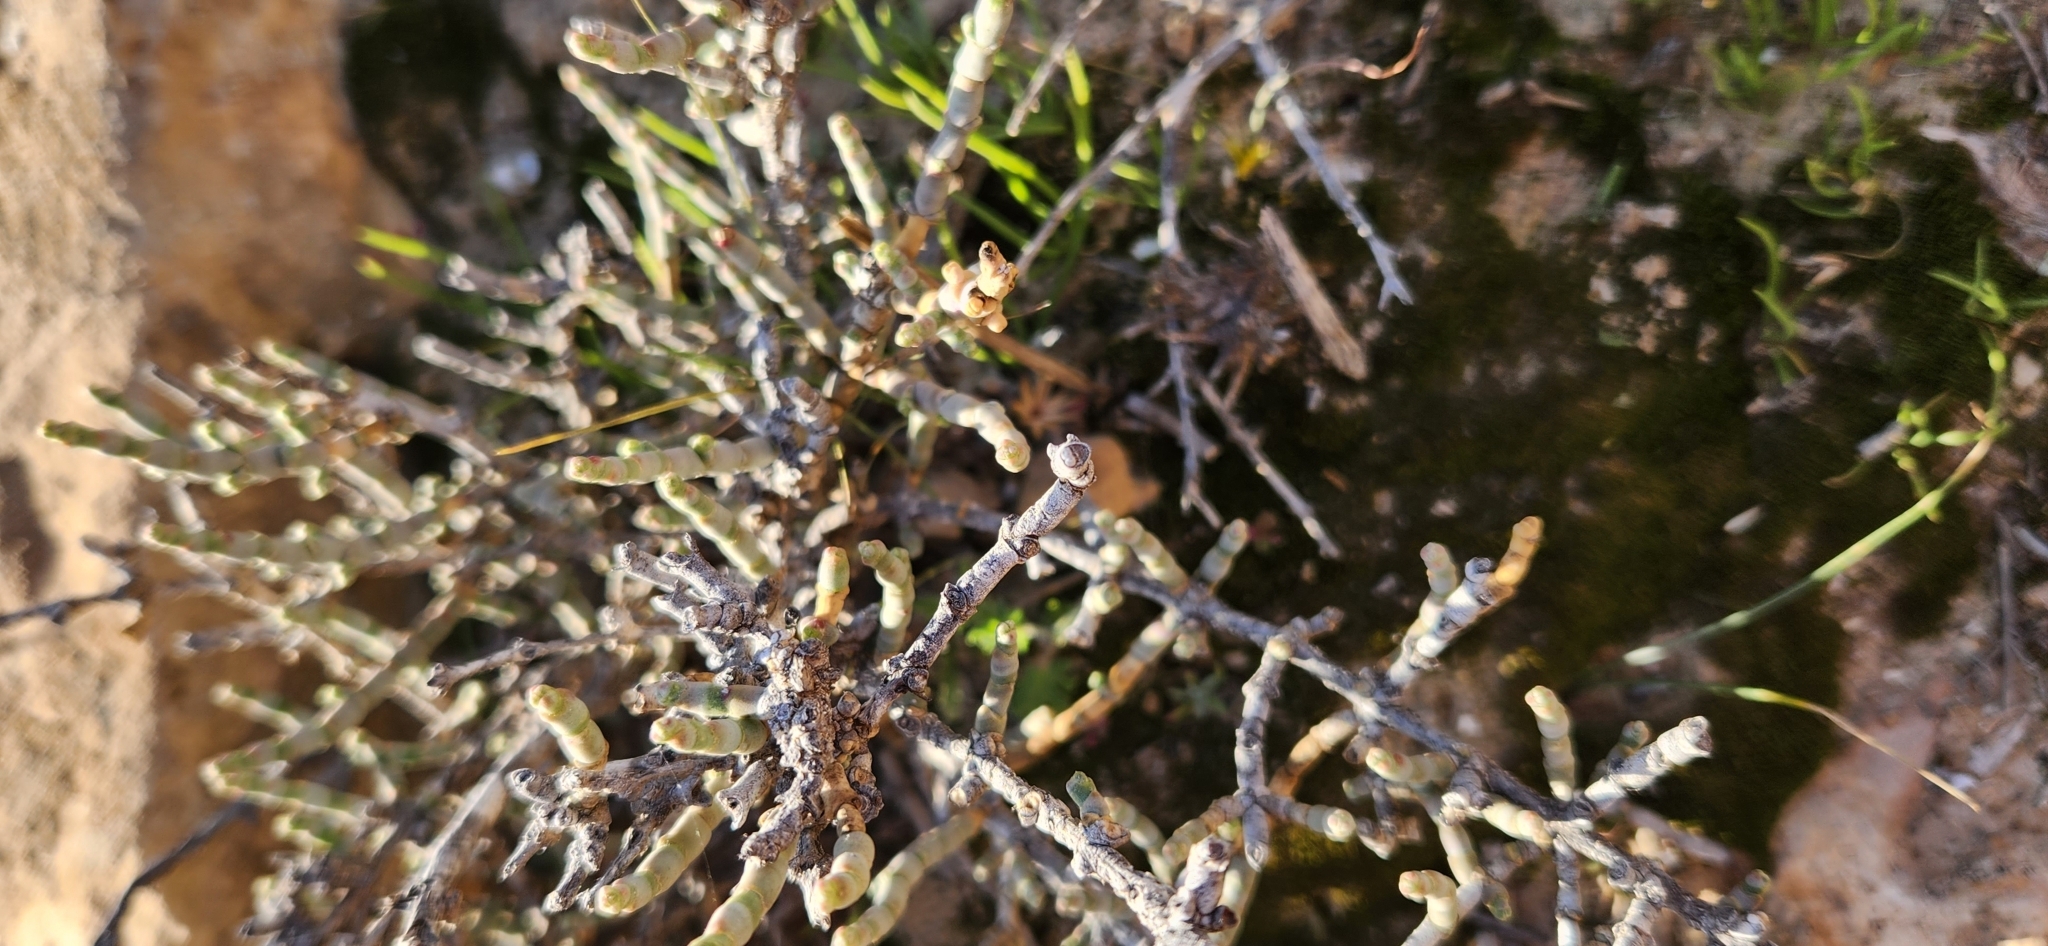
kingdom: Plantae
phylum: Tracheophyta
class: Magnoliopsida
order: Caryophyllales
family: Amaranthaceae
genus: Anabasis
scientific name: Anabasis articulata
